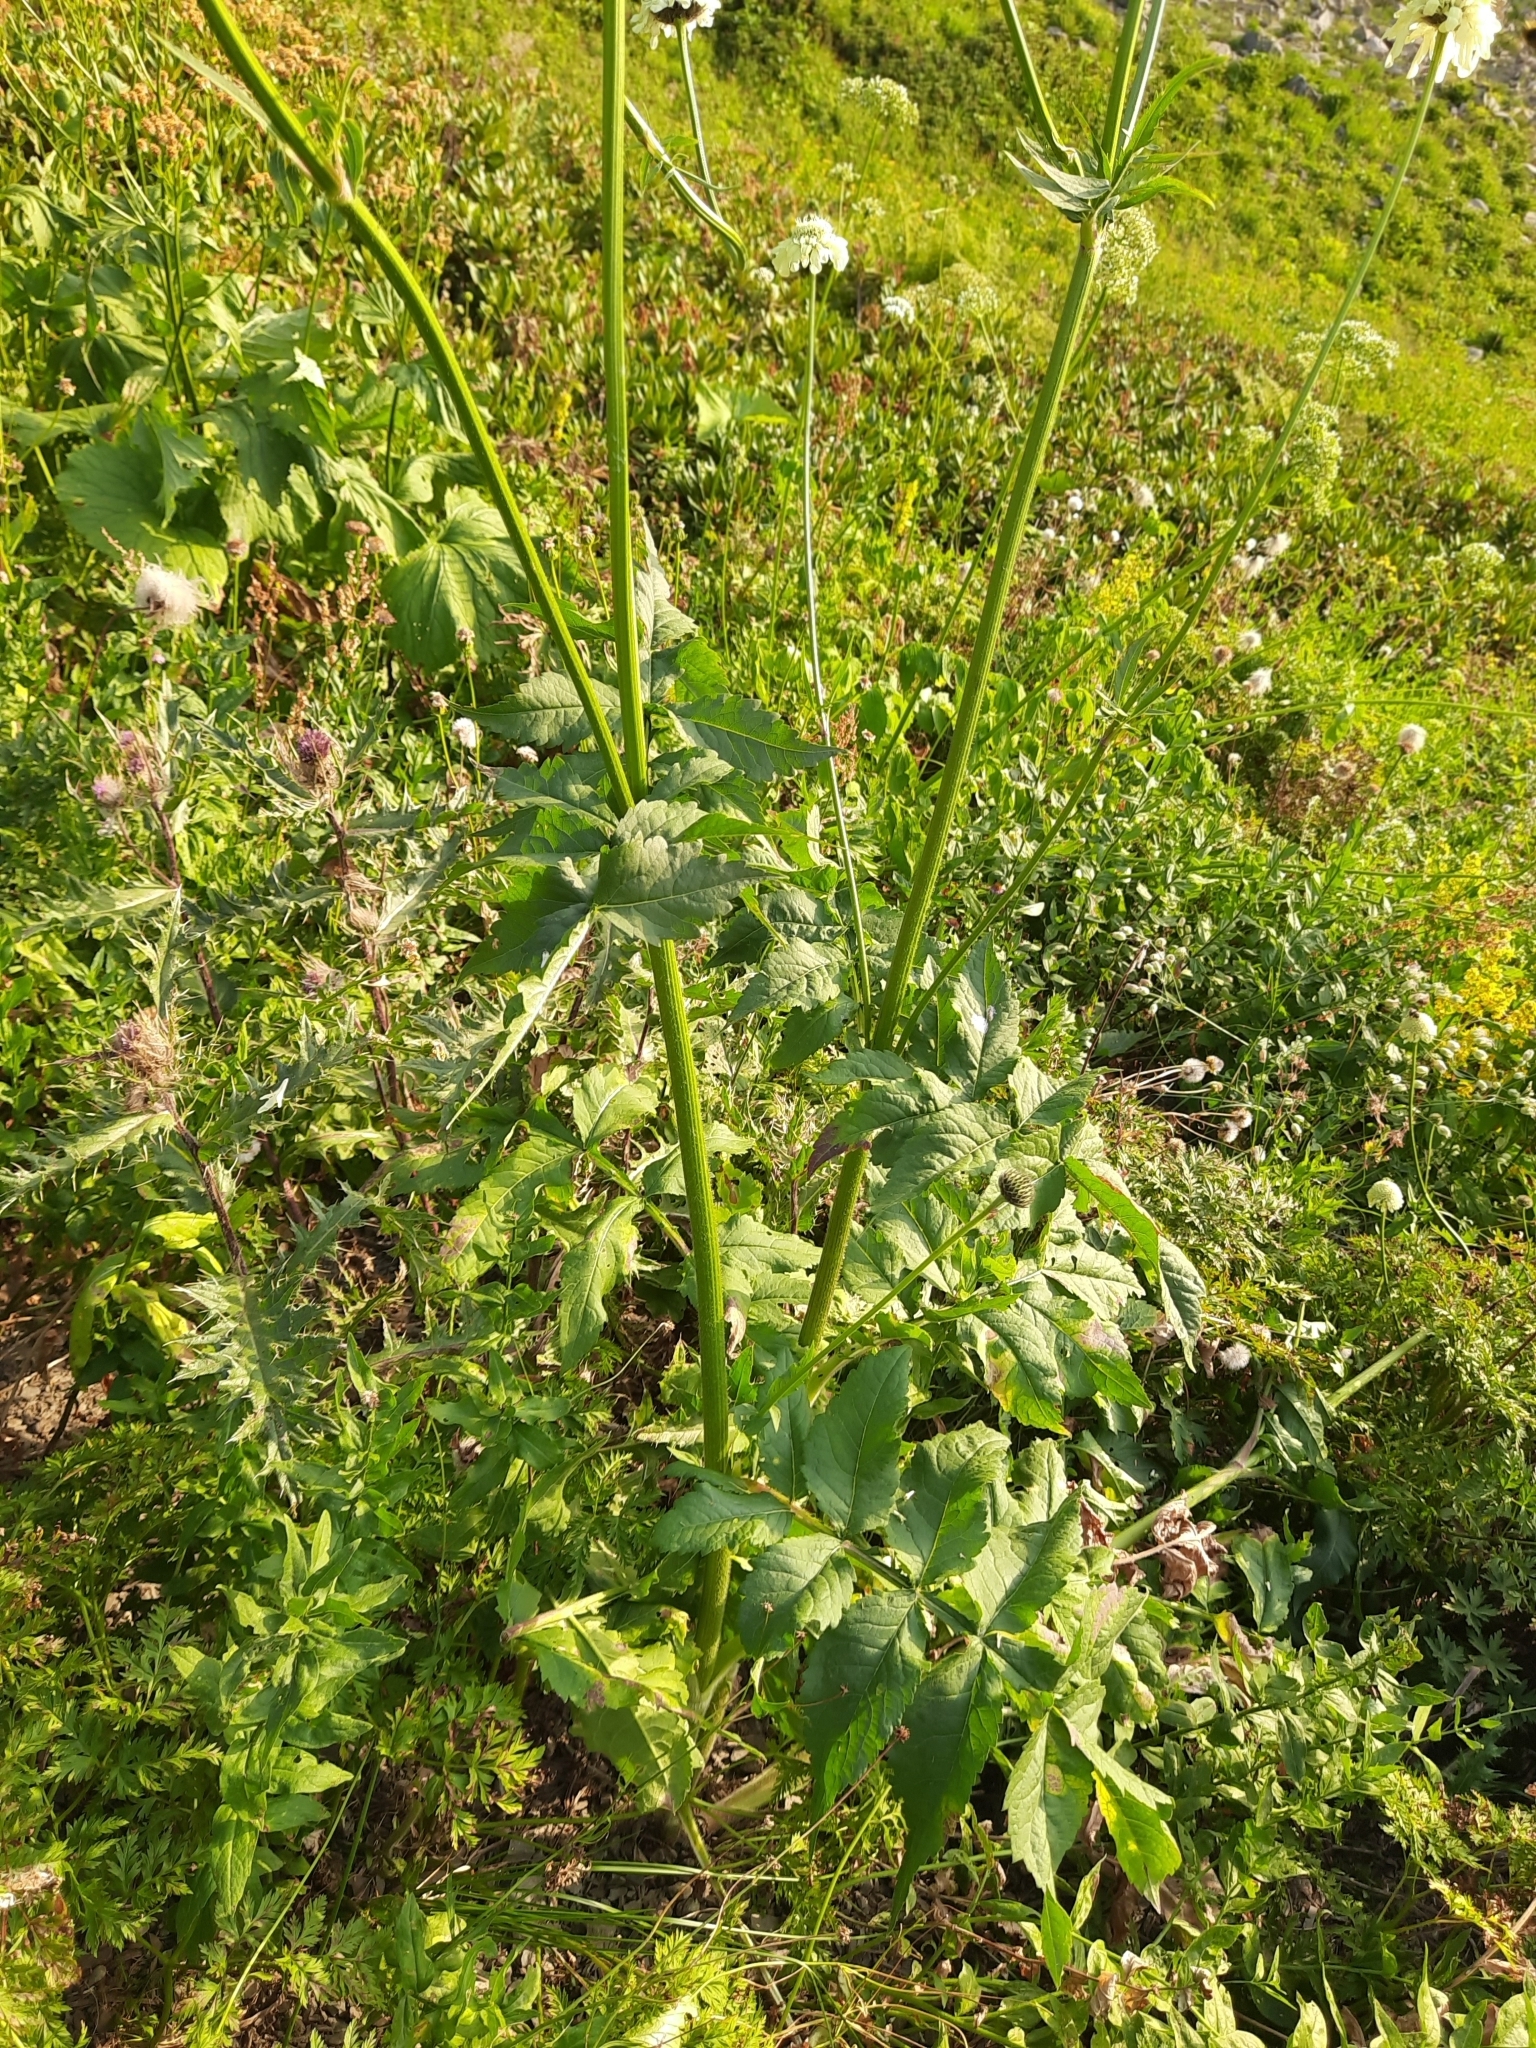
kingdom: Plantae
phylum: Tracheophyta
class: Magnoliopsida
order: Dipsacales
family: Caprifoliaceae
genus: Cephalaria
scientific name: Cephalaria gigantea
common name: Tatarian cephalaria
